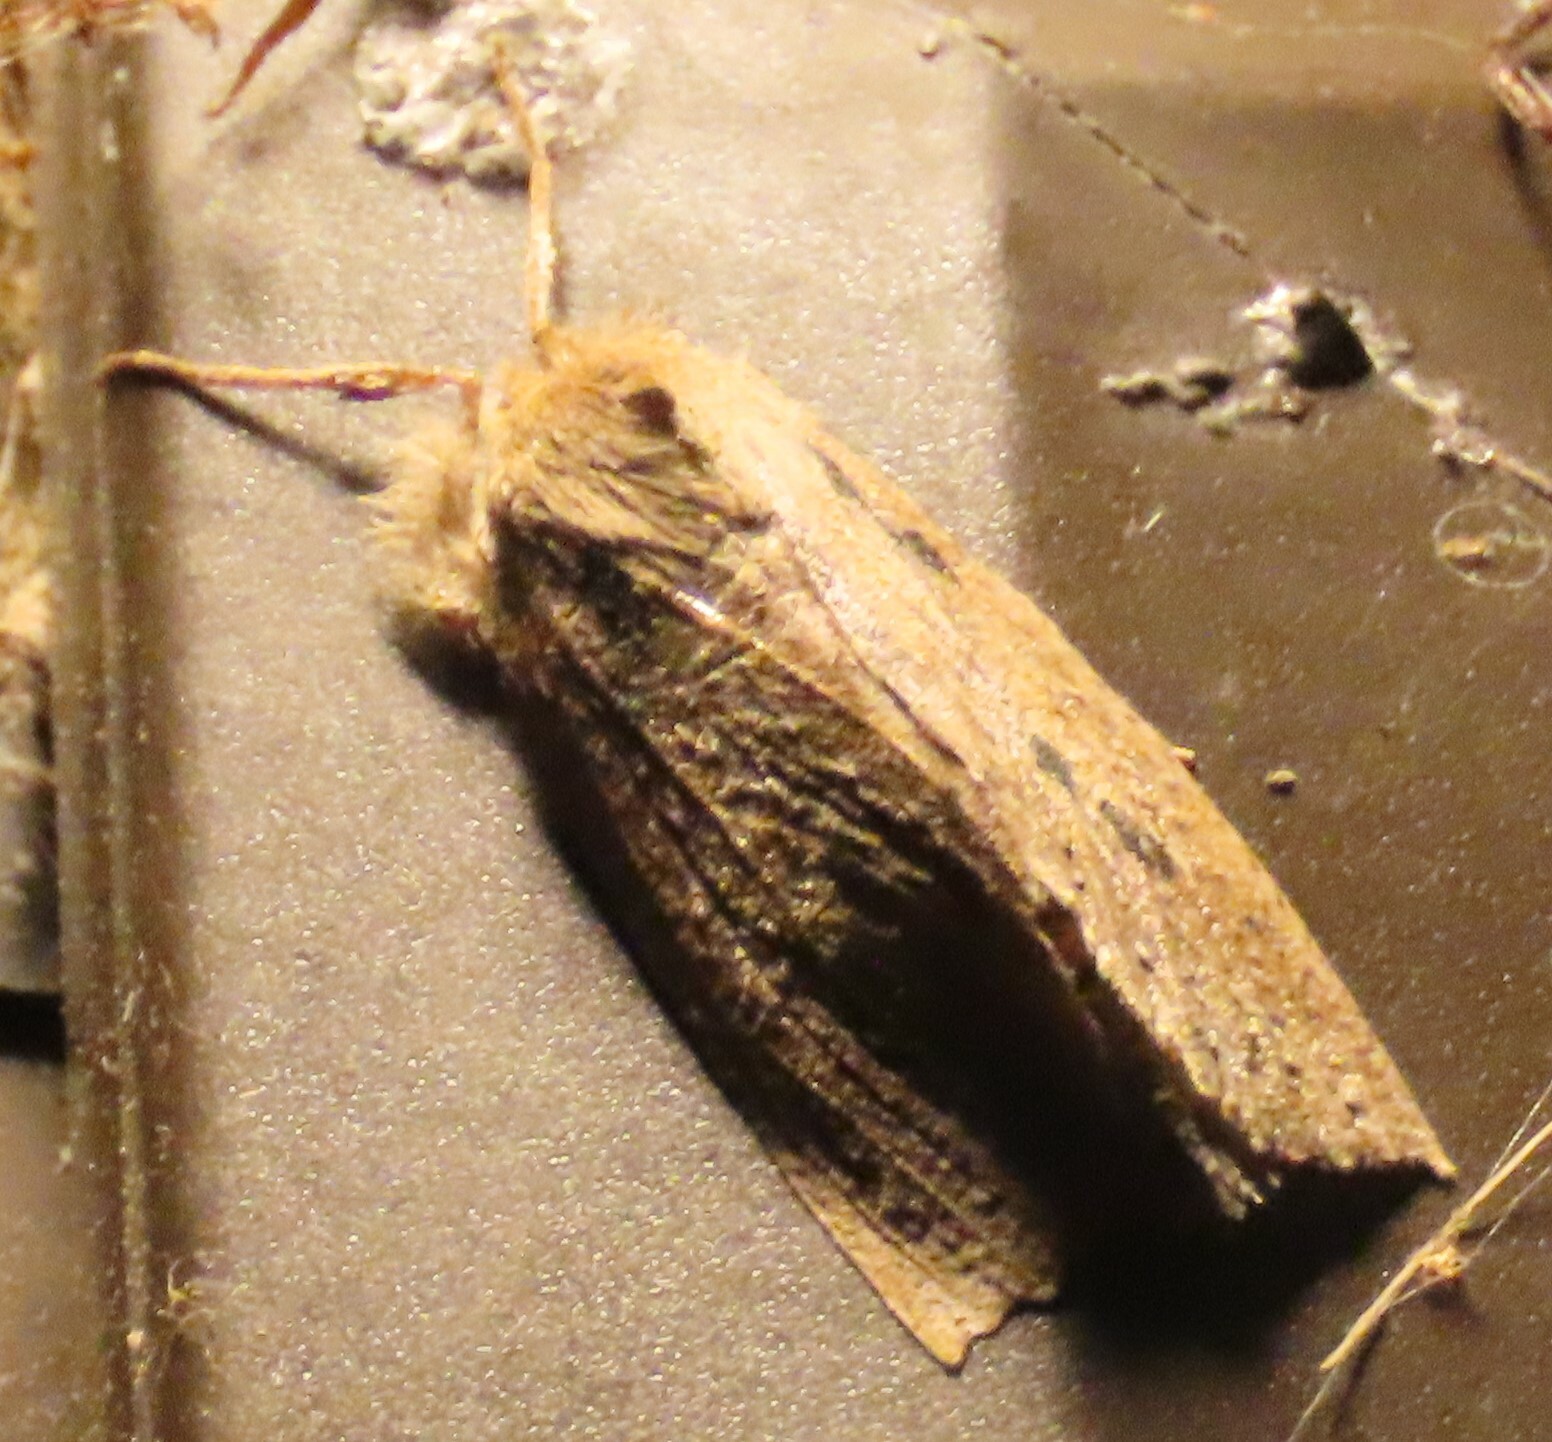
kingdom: Animalia
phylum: Arthropoda
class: Insecta
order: Lepidoptera
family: Geometridae
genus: Declana
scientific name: Declana leptomera
